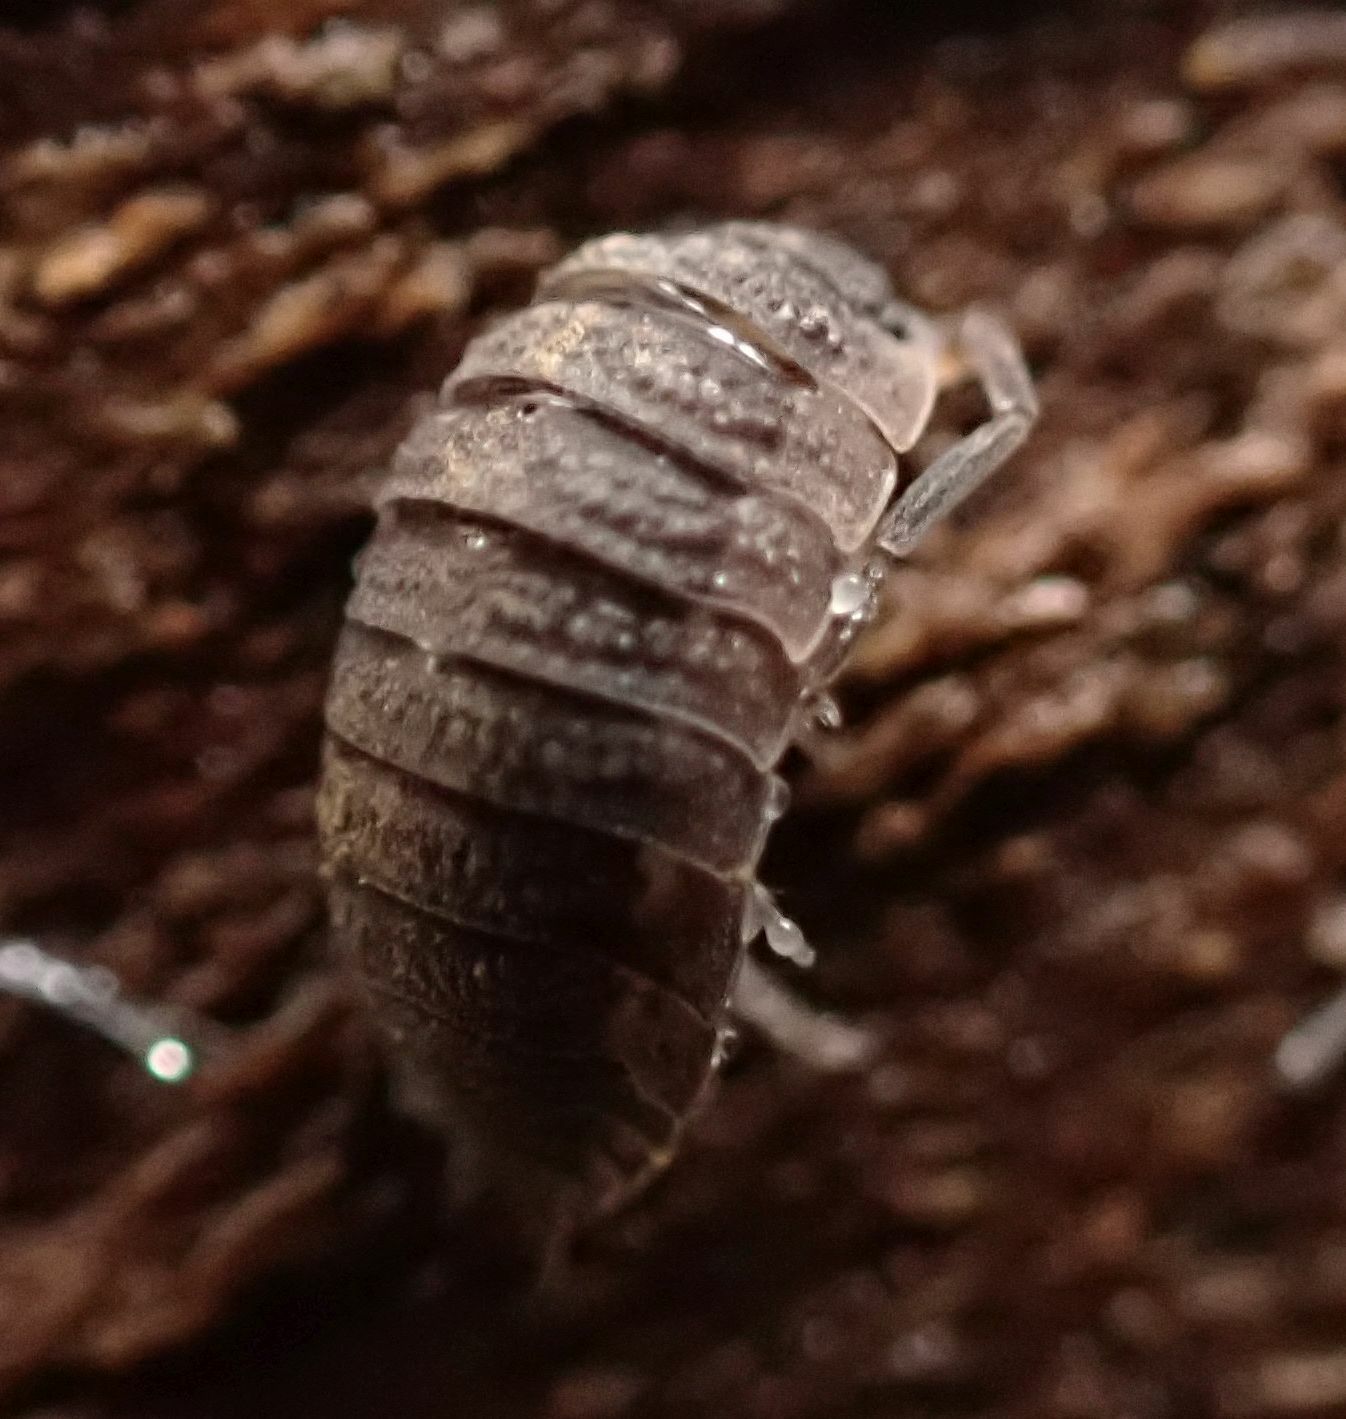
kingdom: Animalia
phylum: Arthropoda
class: Malacostraca
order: Isopoda
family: Porcellionidae
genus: Porcellio
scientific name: Porcellio scaber
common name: Common rough woodlouse
